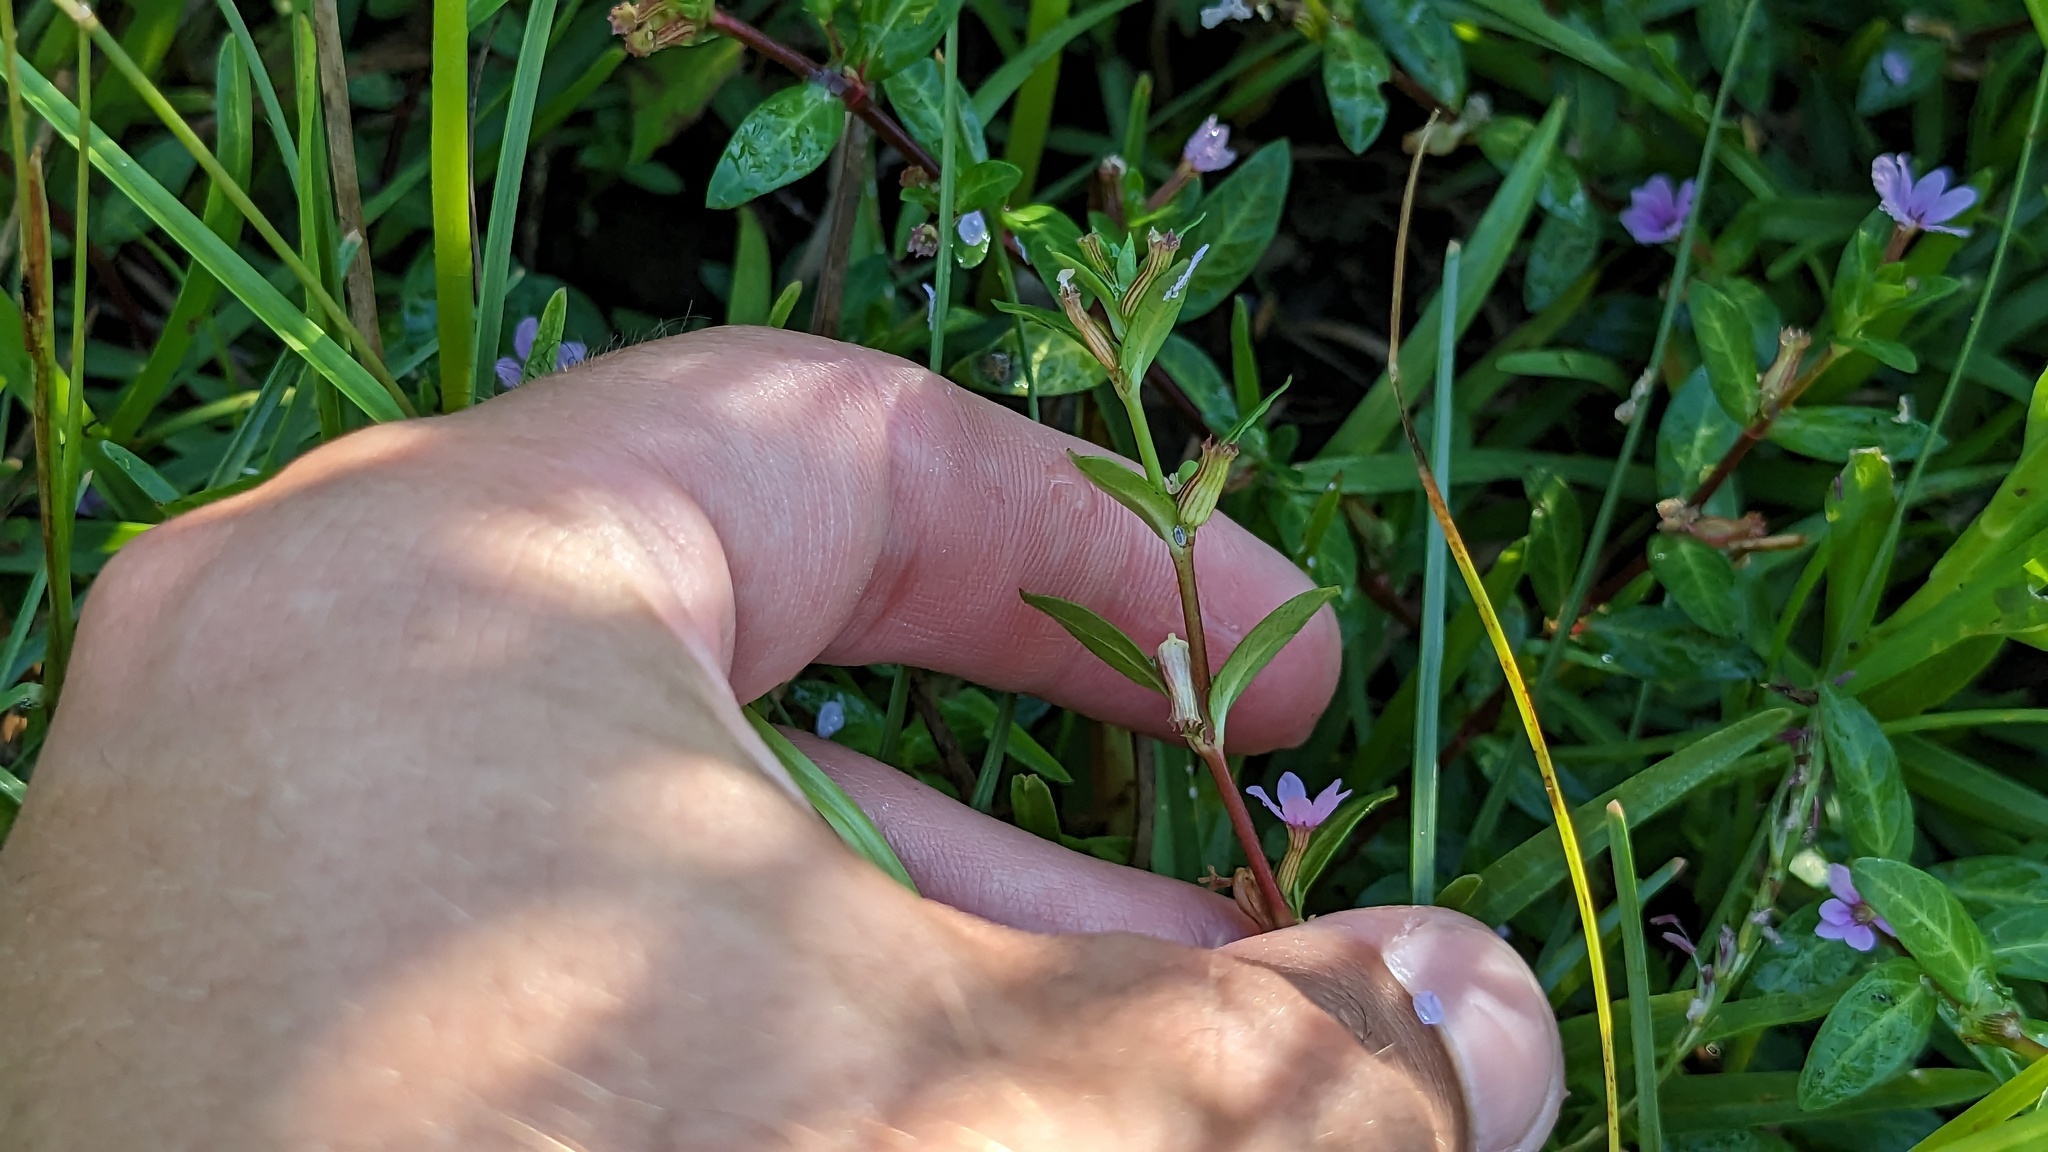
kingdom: Plantae
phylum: Tracheophyta
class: Magnoliopsida
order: Myrtales
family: Lythraceae
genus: Cuphea
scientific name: Cuphea strigulosa
